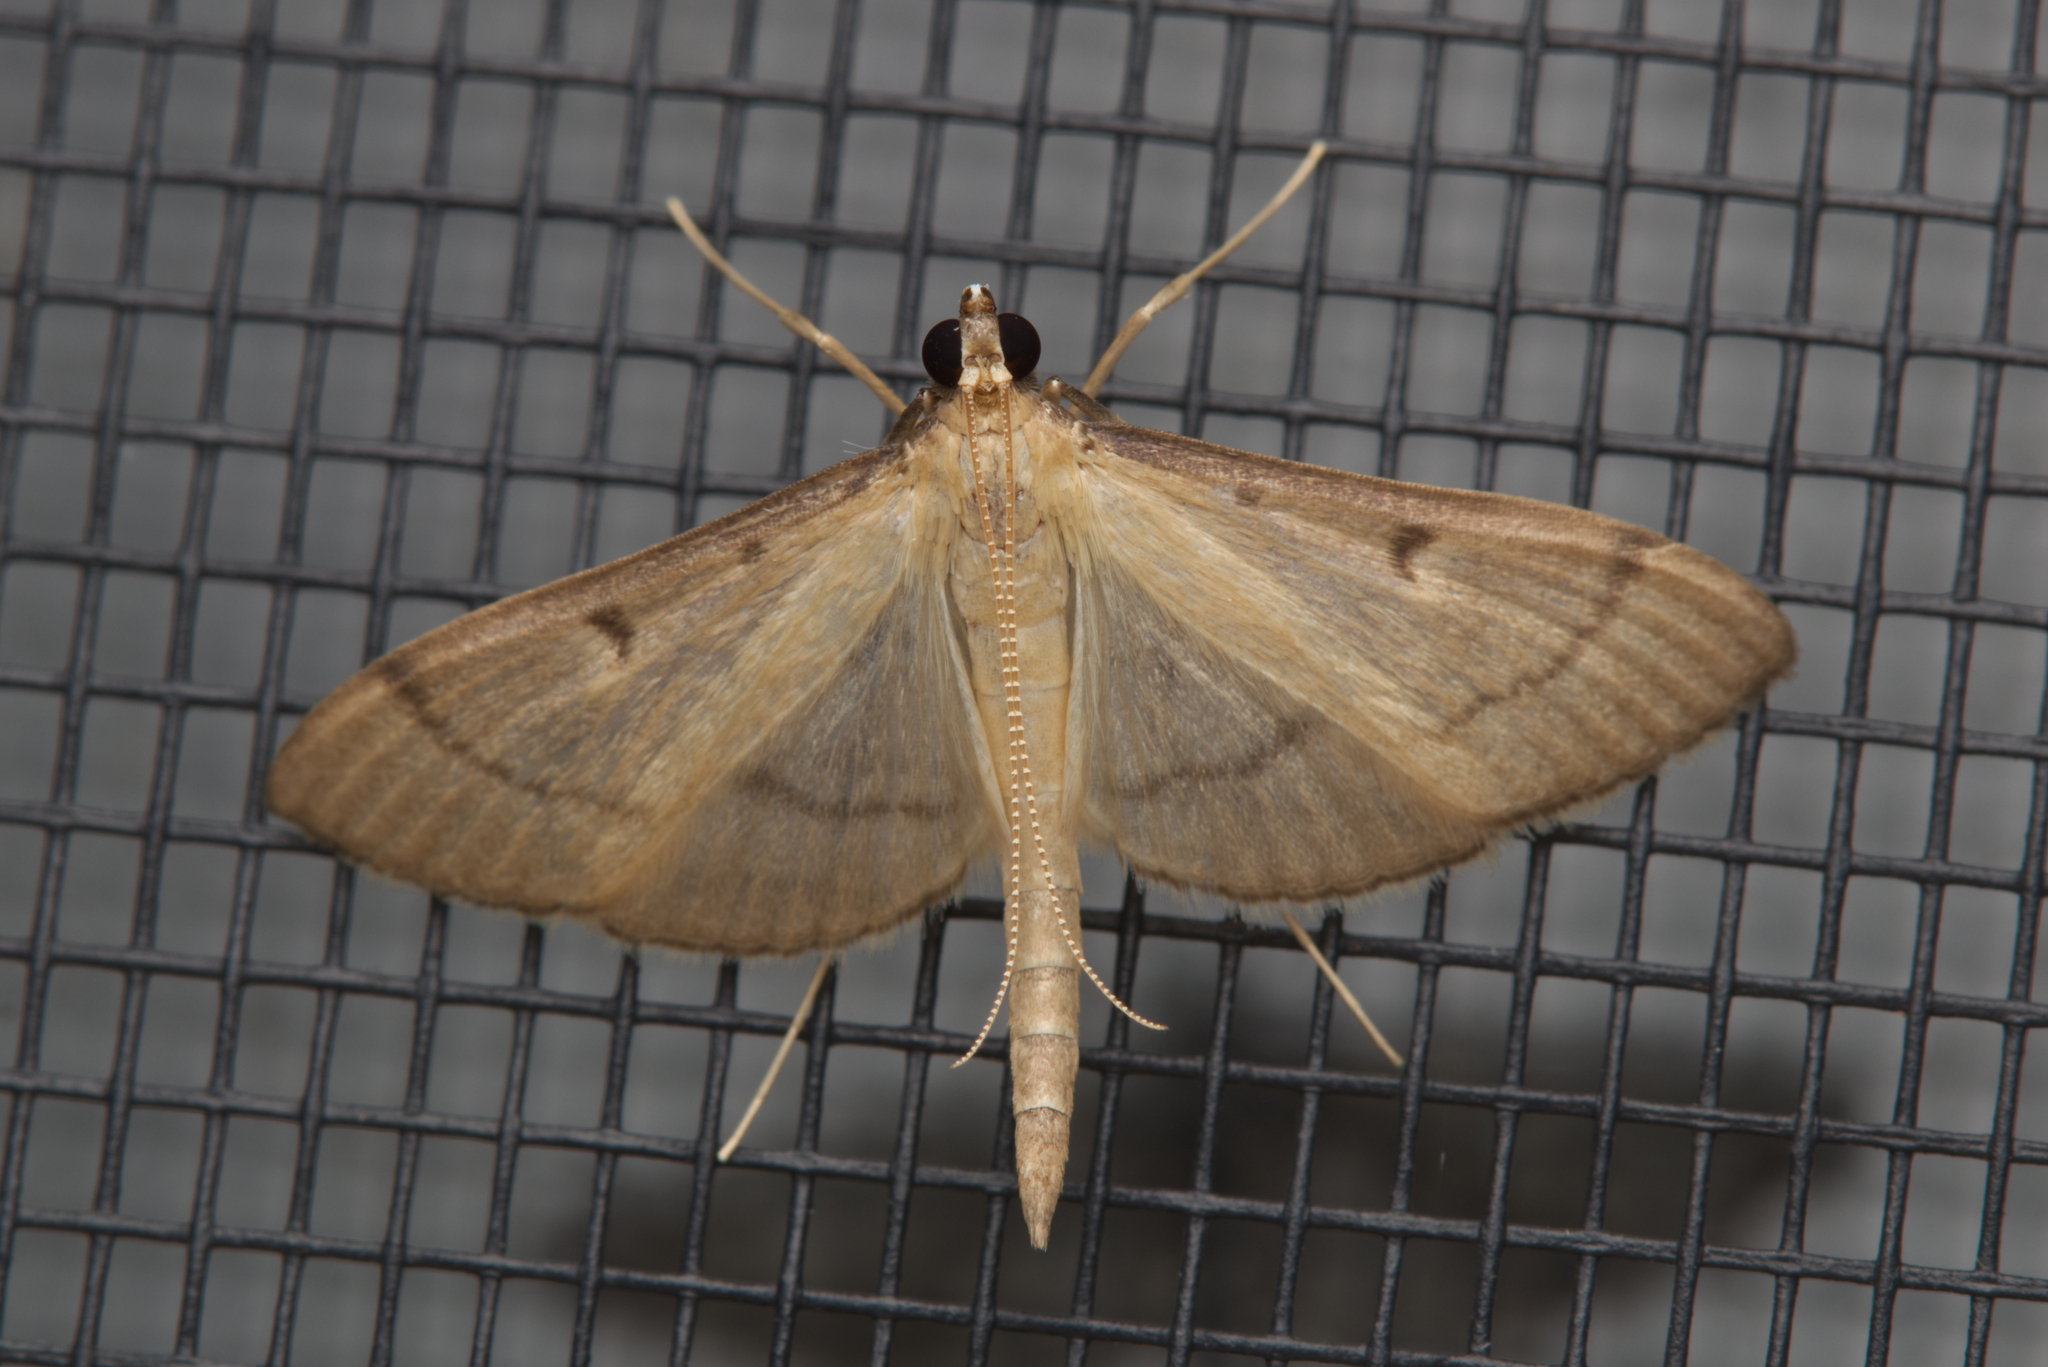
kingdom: Animalia
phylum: Arthropoda
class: Insecta
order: Lepidoptera
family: Crambidae
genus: Bradina
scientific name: Bradina admixtalis
